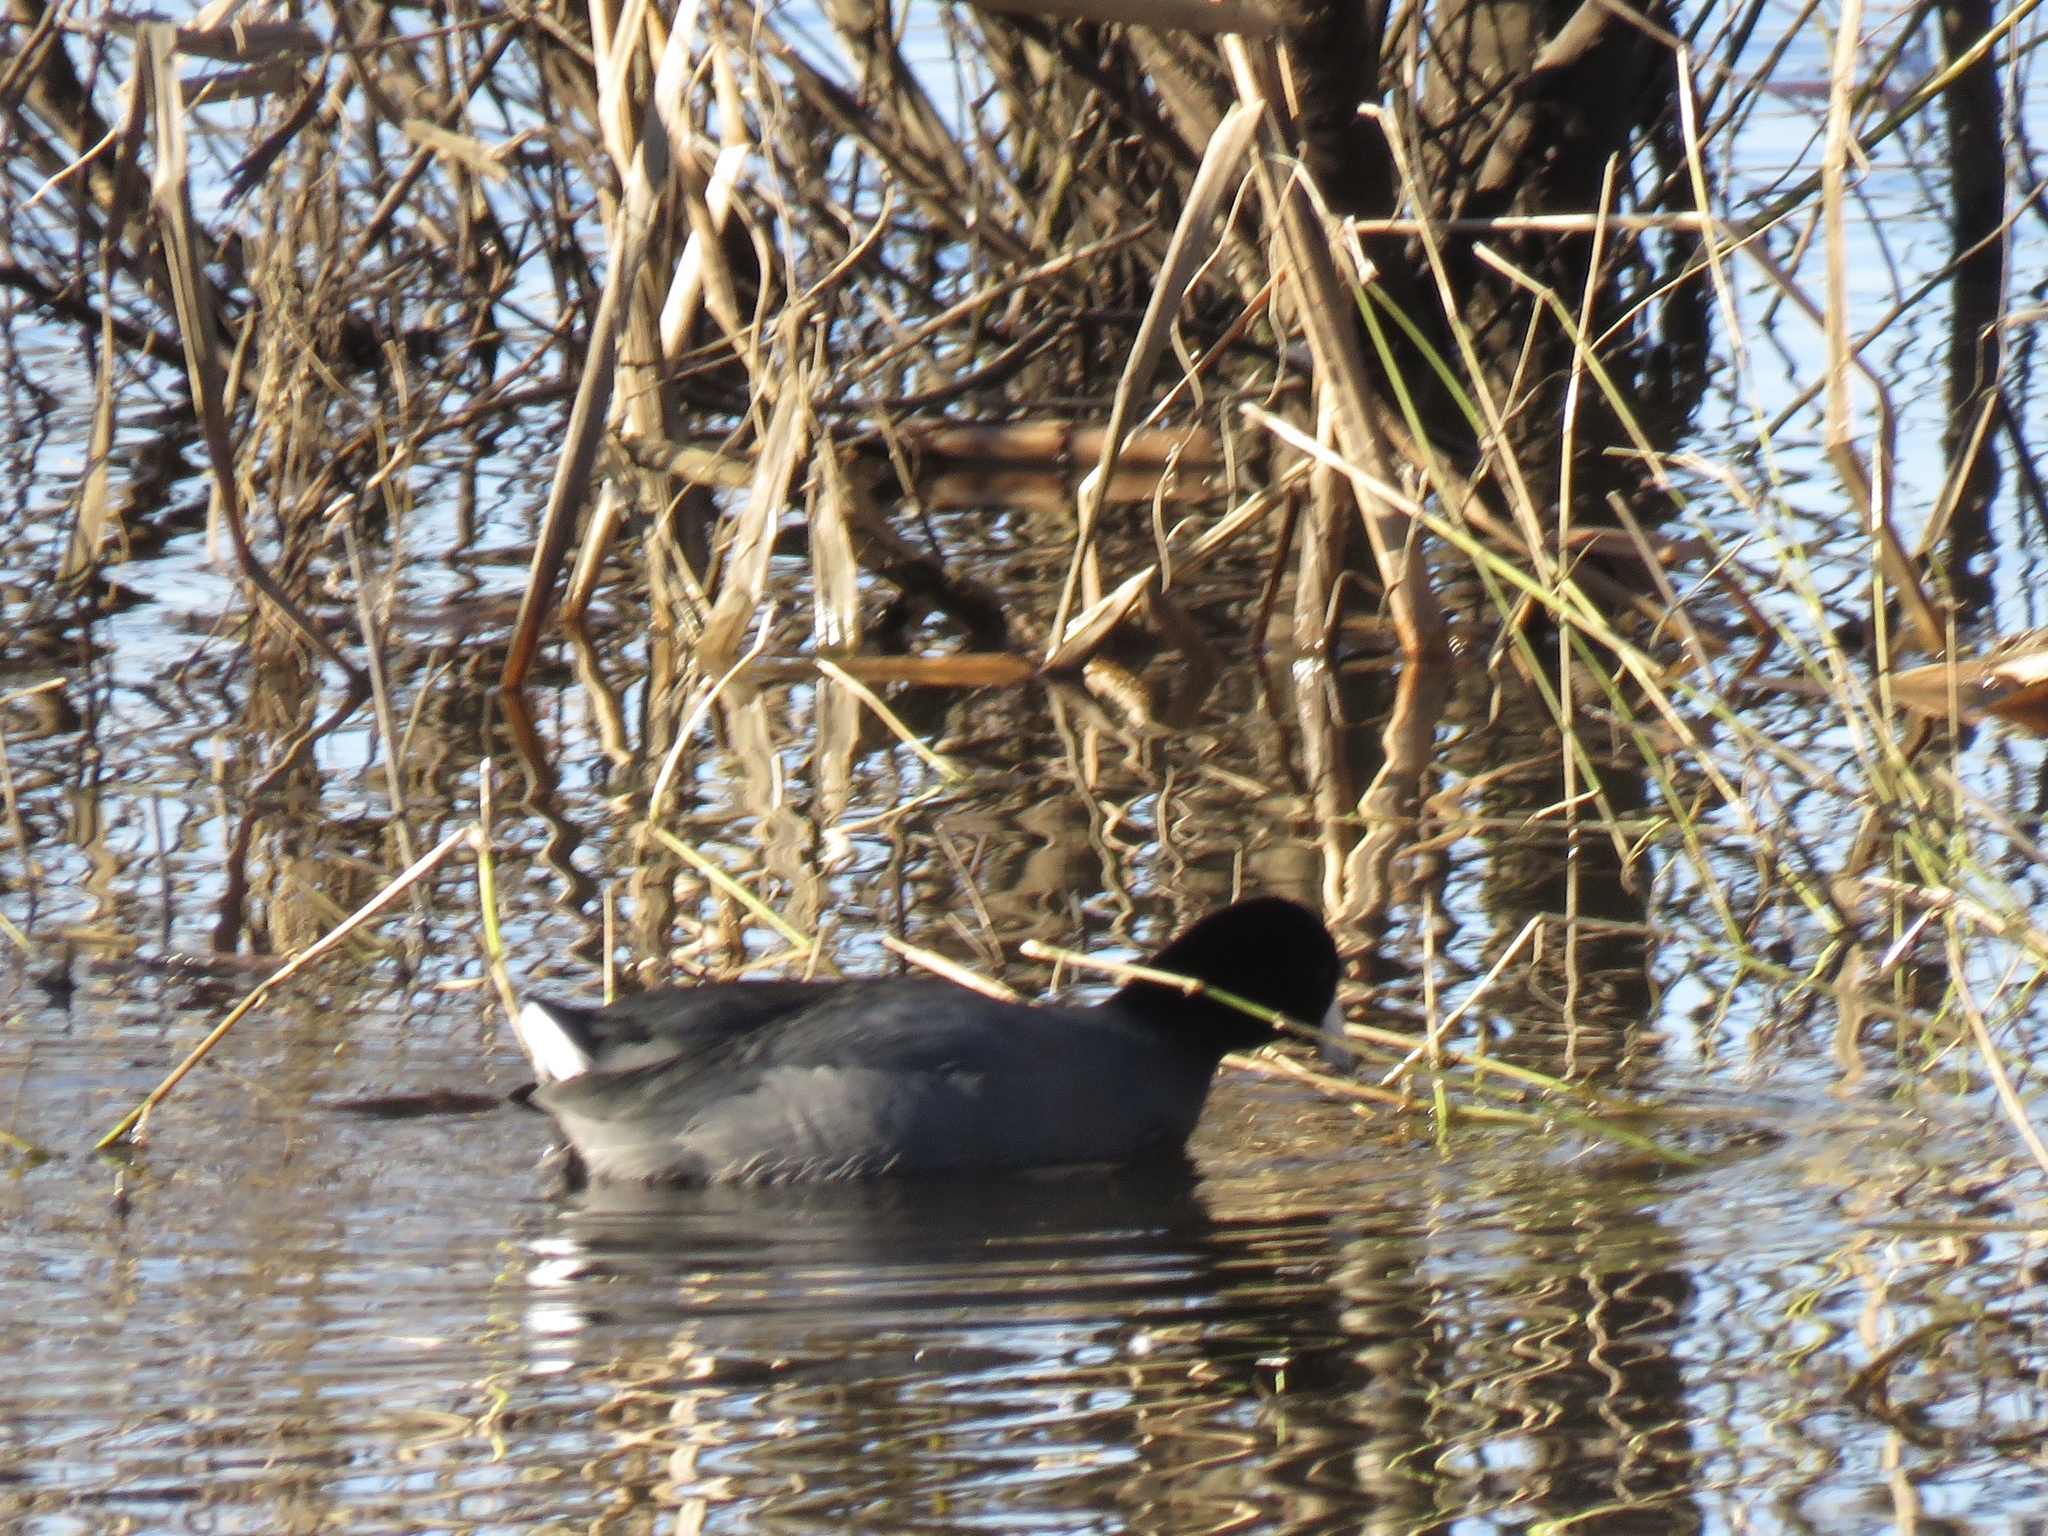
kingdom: Animalia
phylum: Chordata
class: Aves
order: Gruiformes
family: Rallidae
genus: Fulica
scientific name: Fulica americana
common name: American coot
